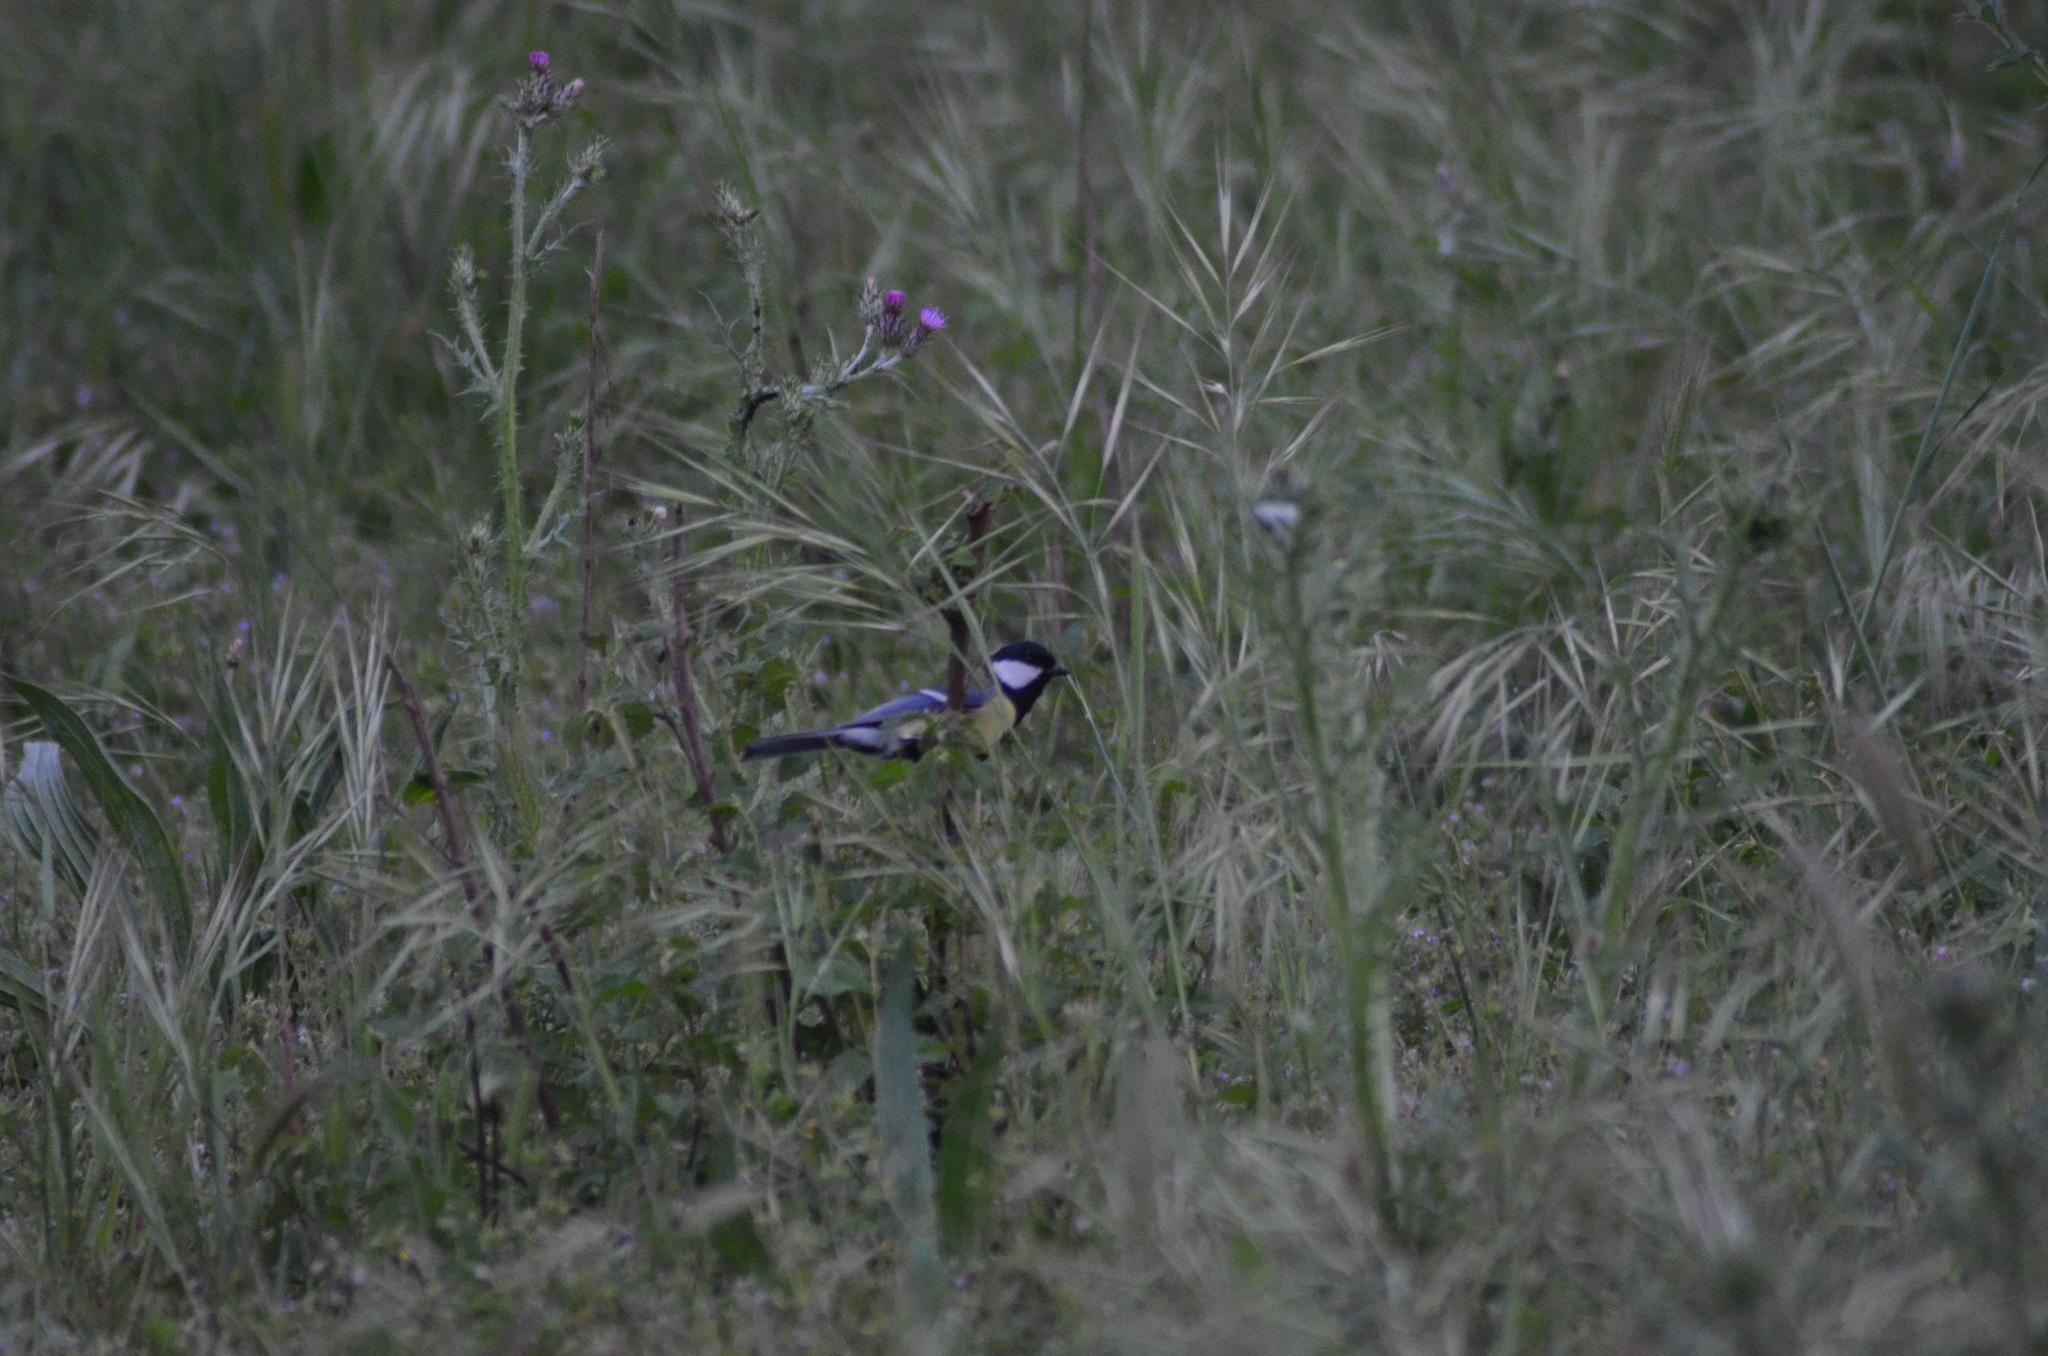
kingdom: Animalia
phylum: Chordata
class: Aves
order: Passeriformes
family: Paridae
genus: Parus
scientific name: Parus major
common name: Great tit
